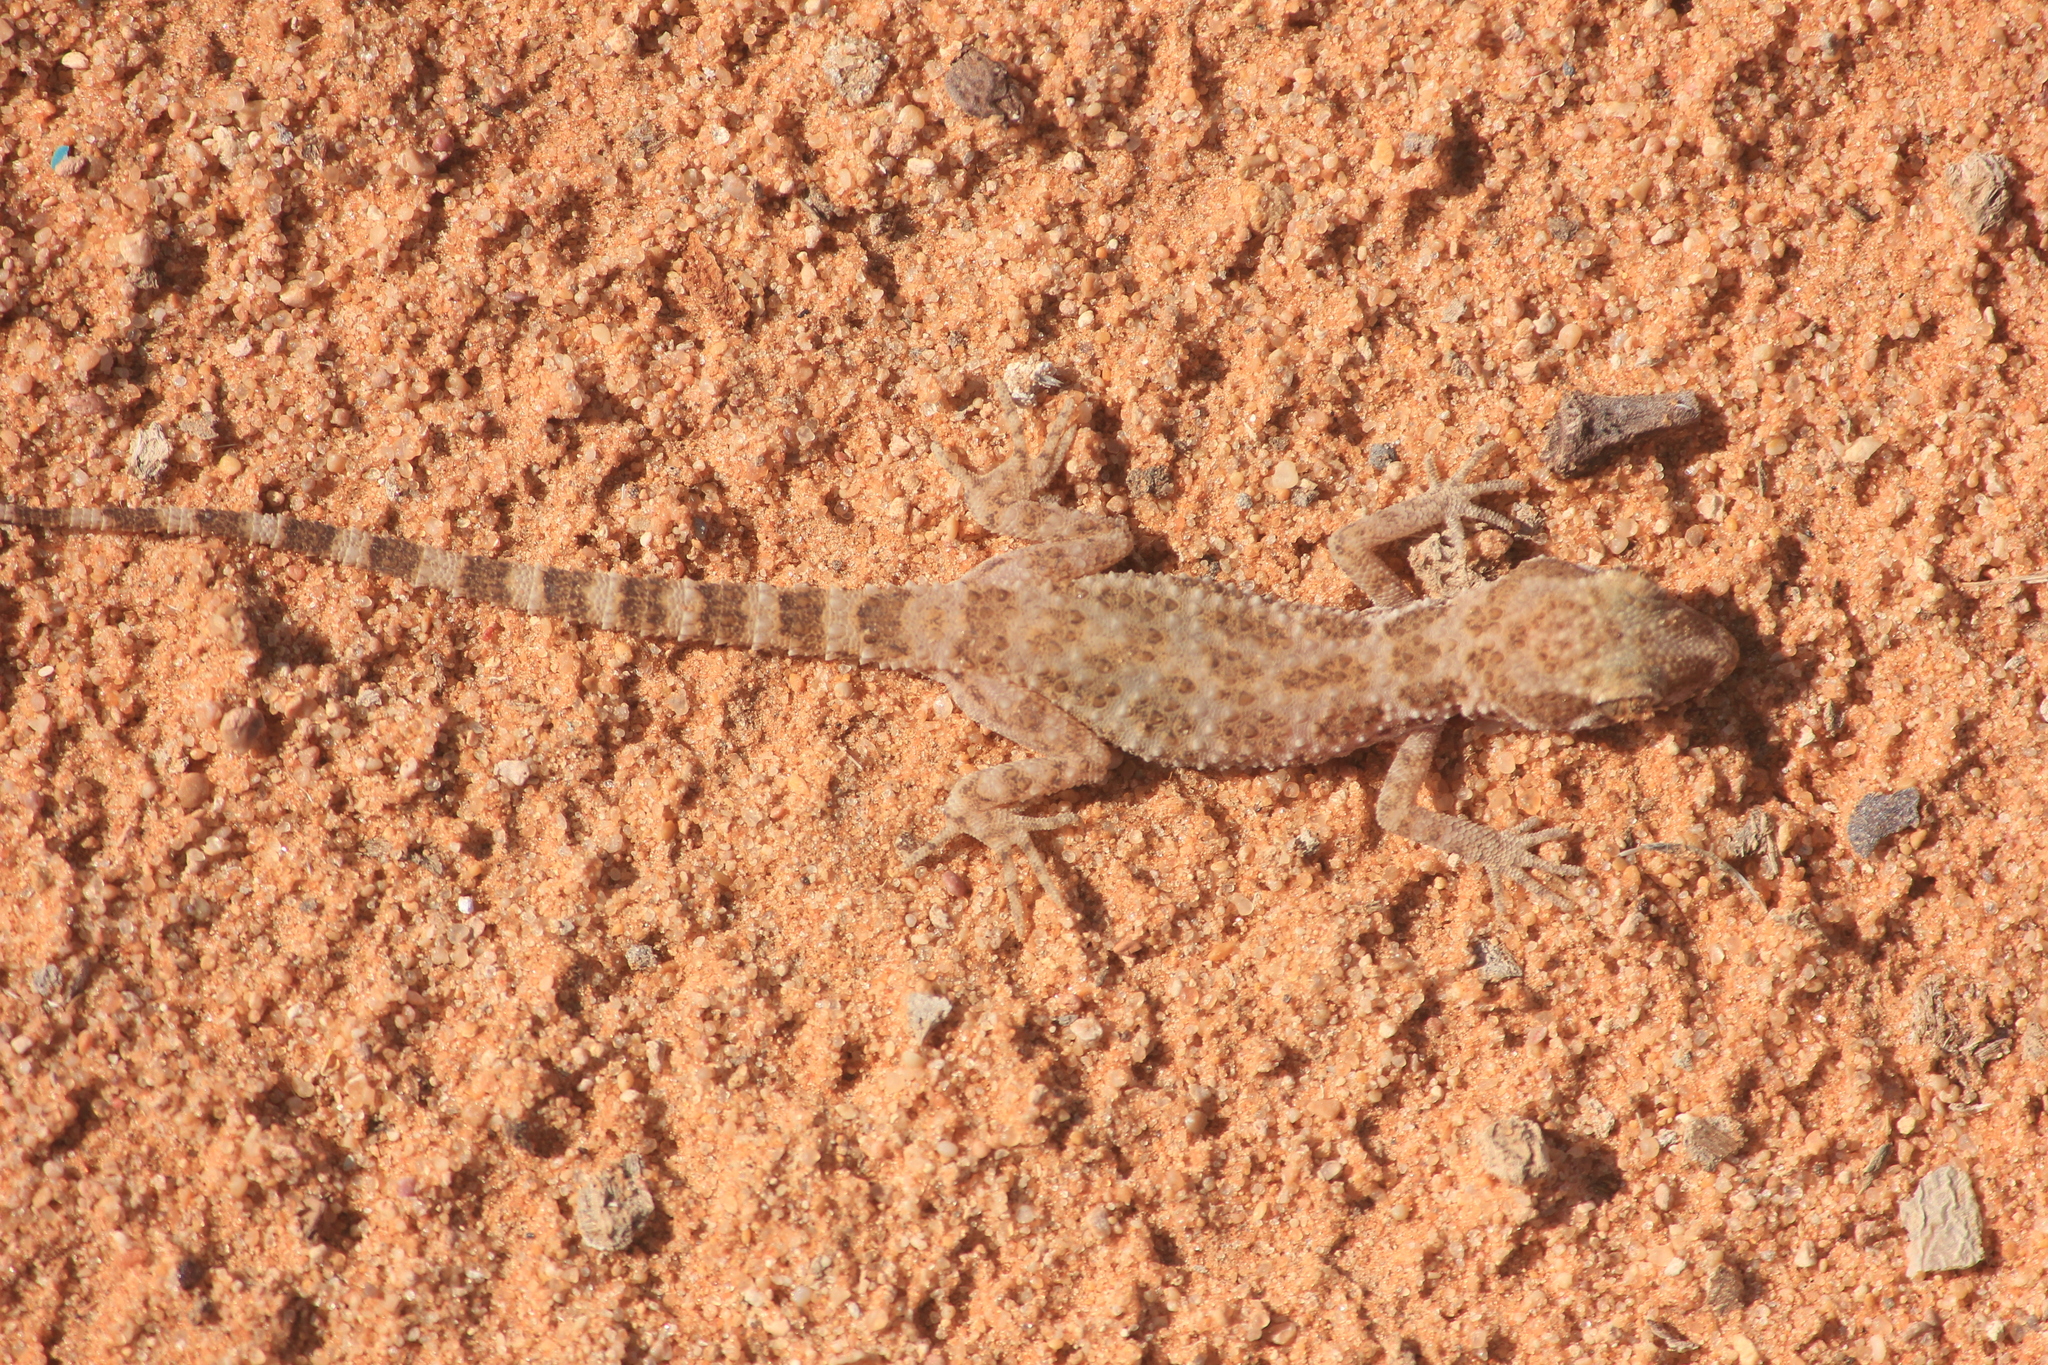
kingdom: Animalia
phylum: Chordata
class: Squamata
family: Gekkonidae
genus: Bunopus
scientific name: Bunopus tuberculatus
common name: Southern tuberculated gecko
